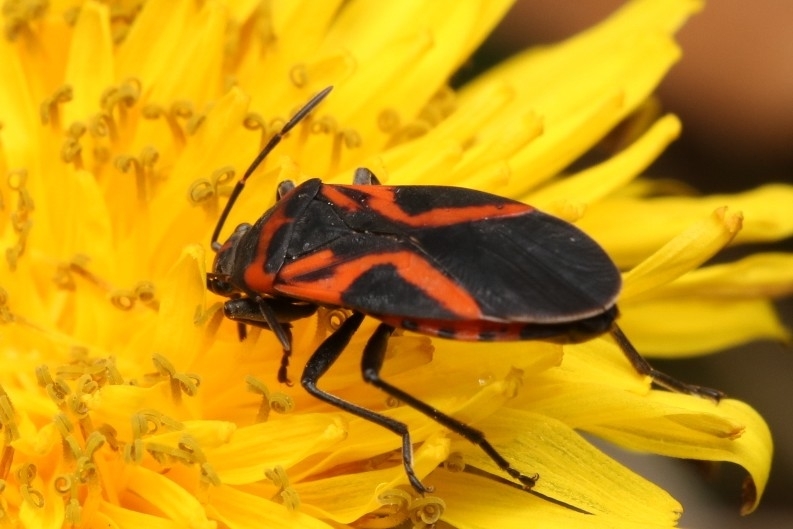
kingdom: Animalia
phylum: Arthropoda
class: Insecta
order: Hemiptera
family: Lygaeidae
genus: Lygaeus
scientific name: Lygaeus turcicus
